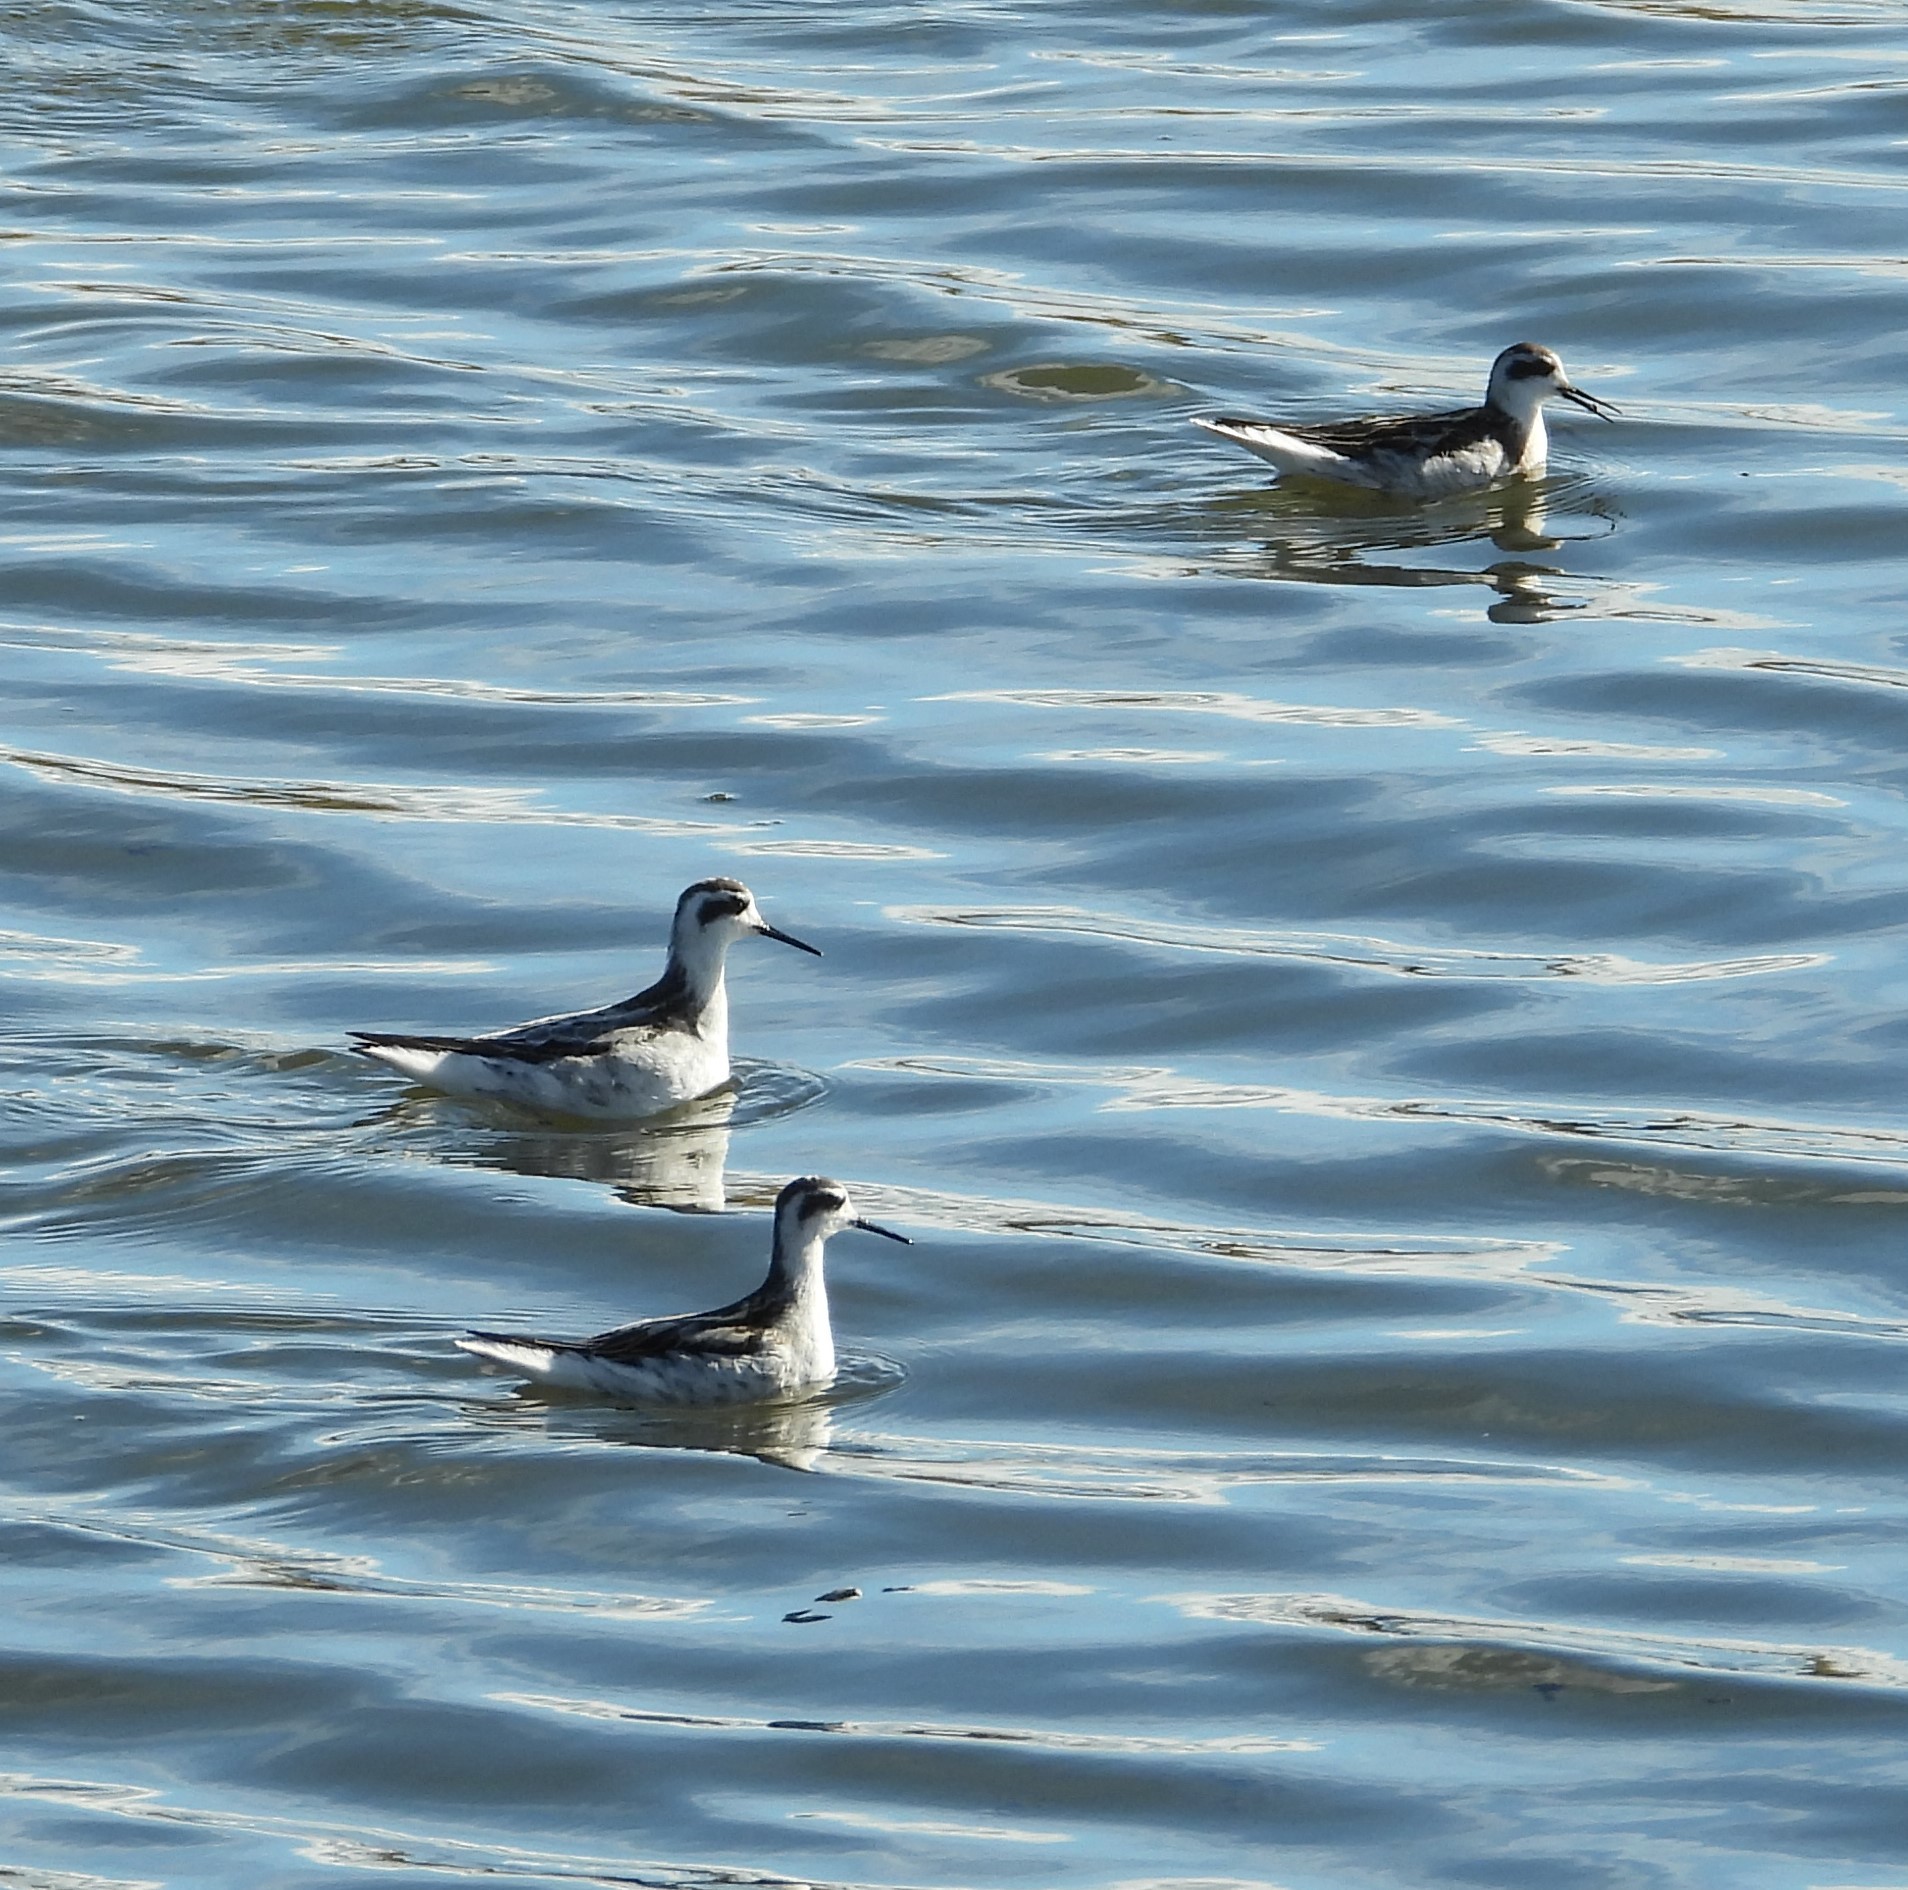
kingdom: Animalia
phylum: Chordata
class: Aves
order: Charadriiformes
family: Scolopacidae
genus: Phalaropus
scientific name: Phalaropus lobatus
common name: Red-necked phalarope
